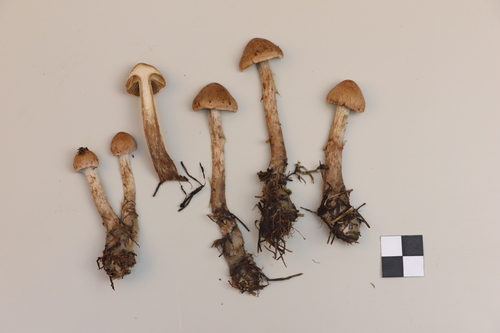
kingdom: Fungi
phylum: Basidiomycota
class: Agaricomycetes
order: Agaricales
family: Cortinariaceae
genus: Cortinarius
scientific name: Cortinarius paragaudis
